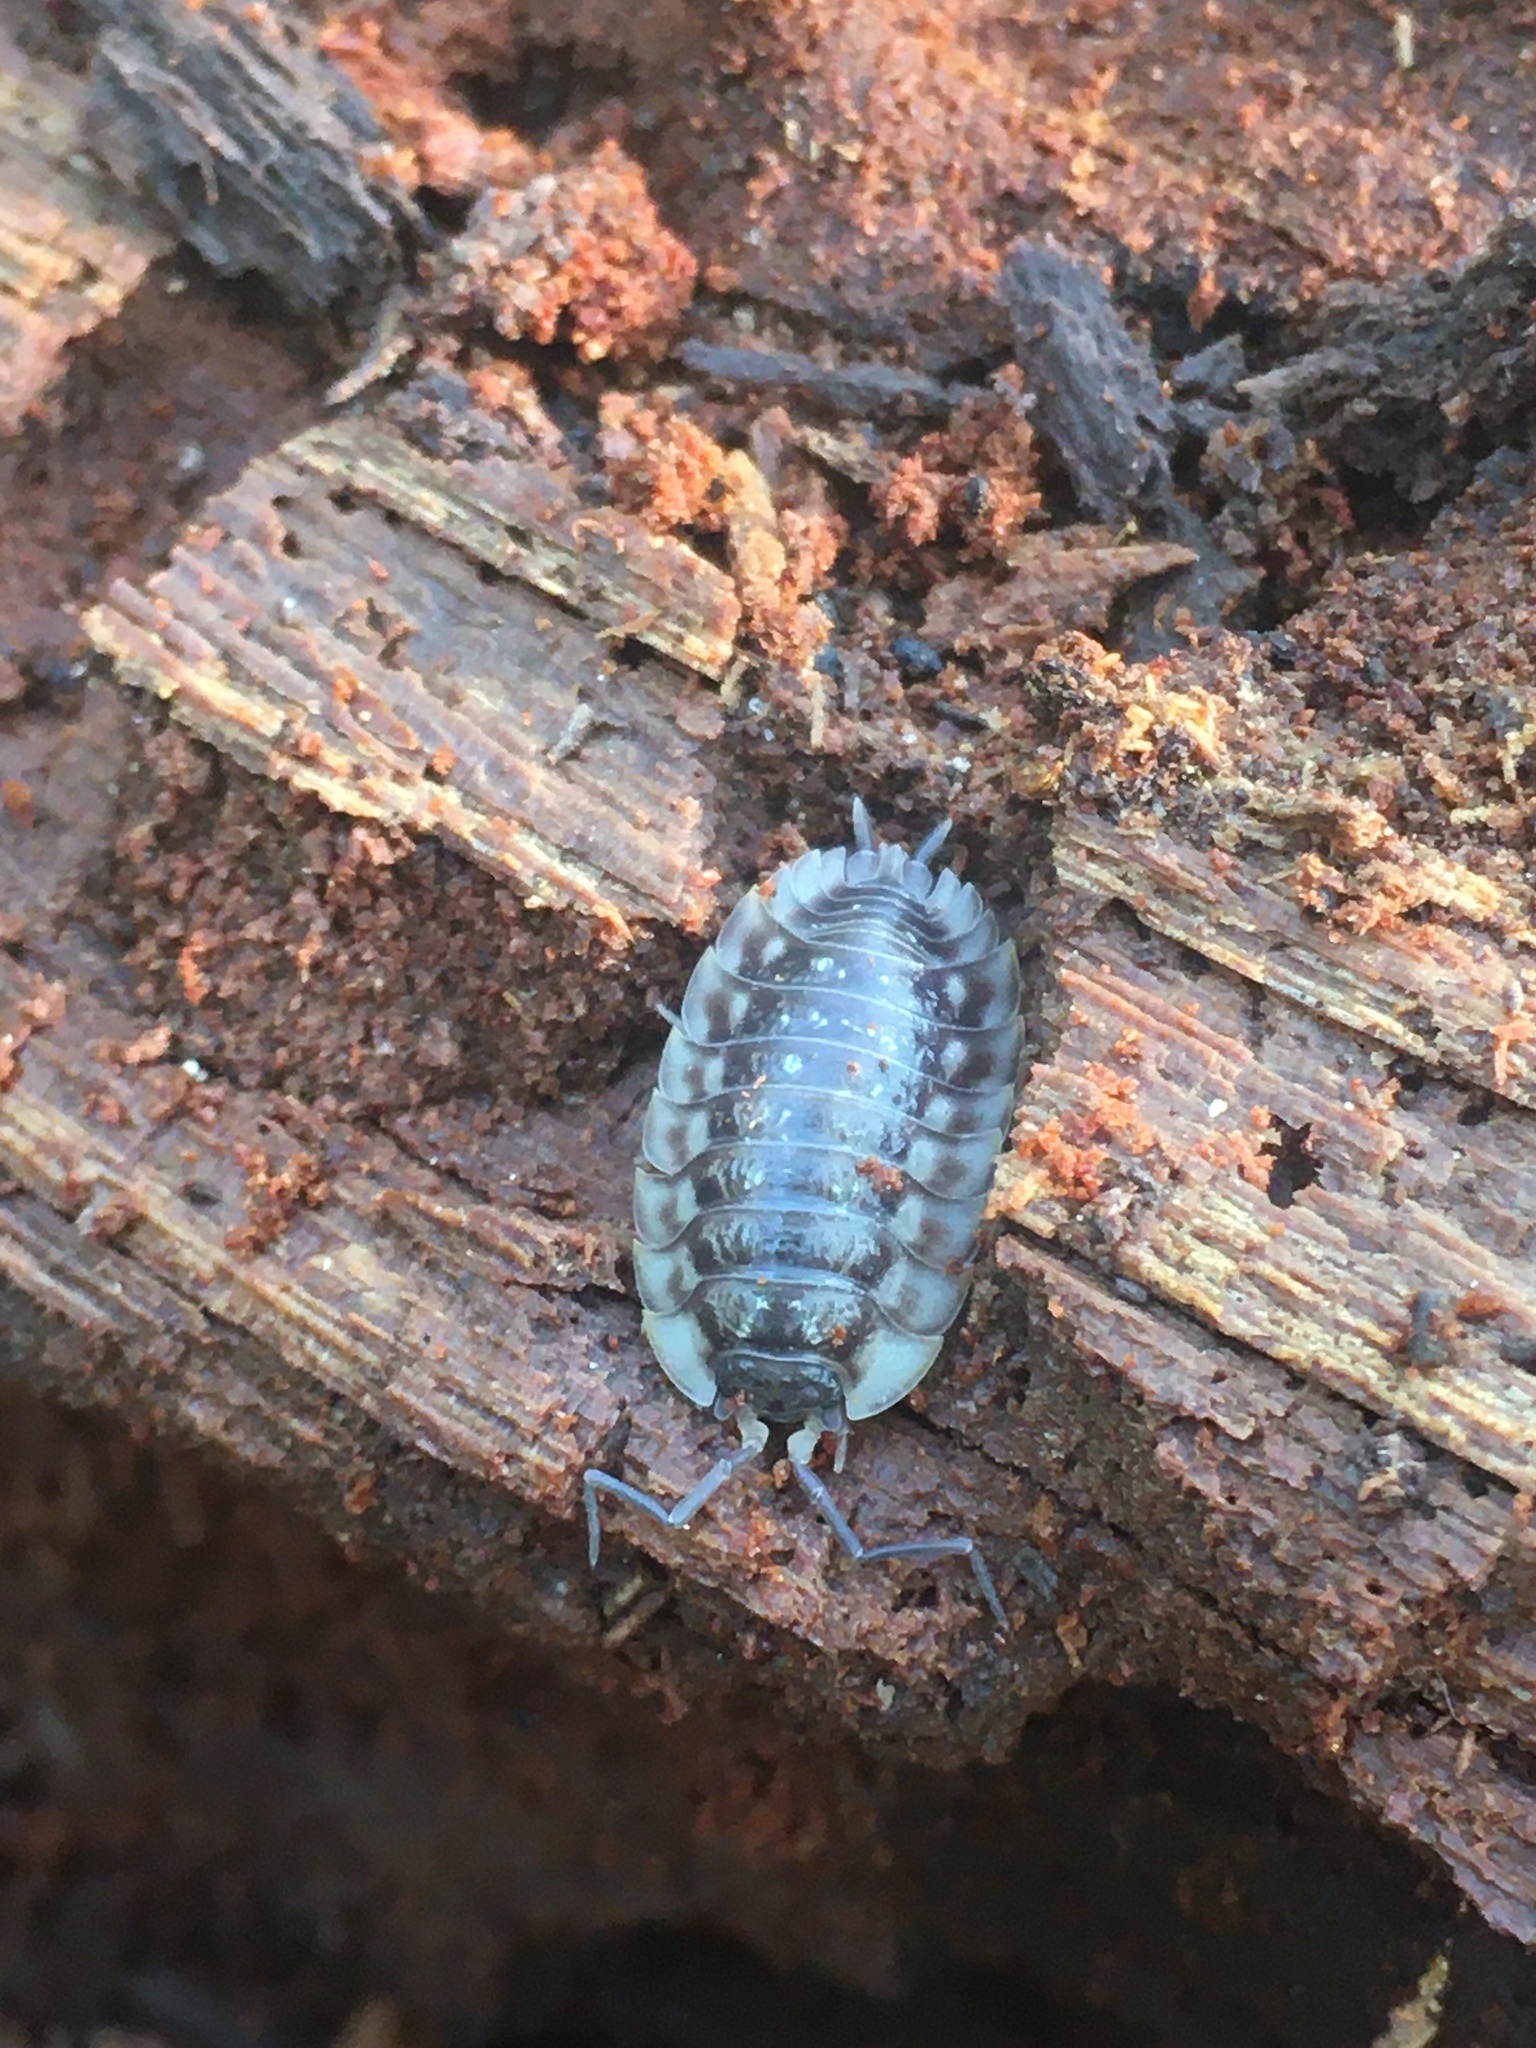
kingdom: Animalia
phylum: Arthropoda
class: Malacostraca
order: Isopoda
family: Oniscidae
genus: Oniscus
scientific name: Oniscus asellus
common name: Common shiny woodlouse
